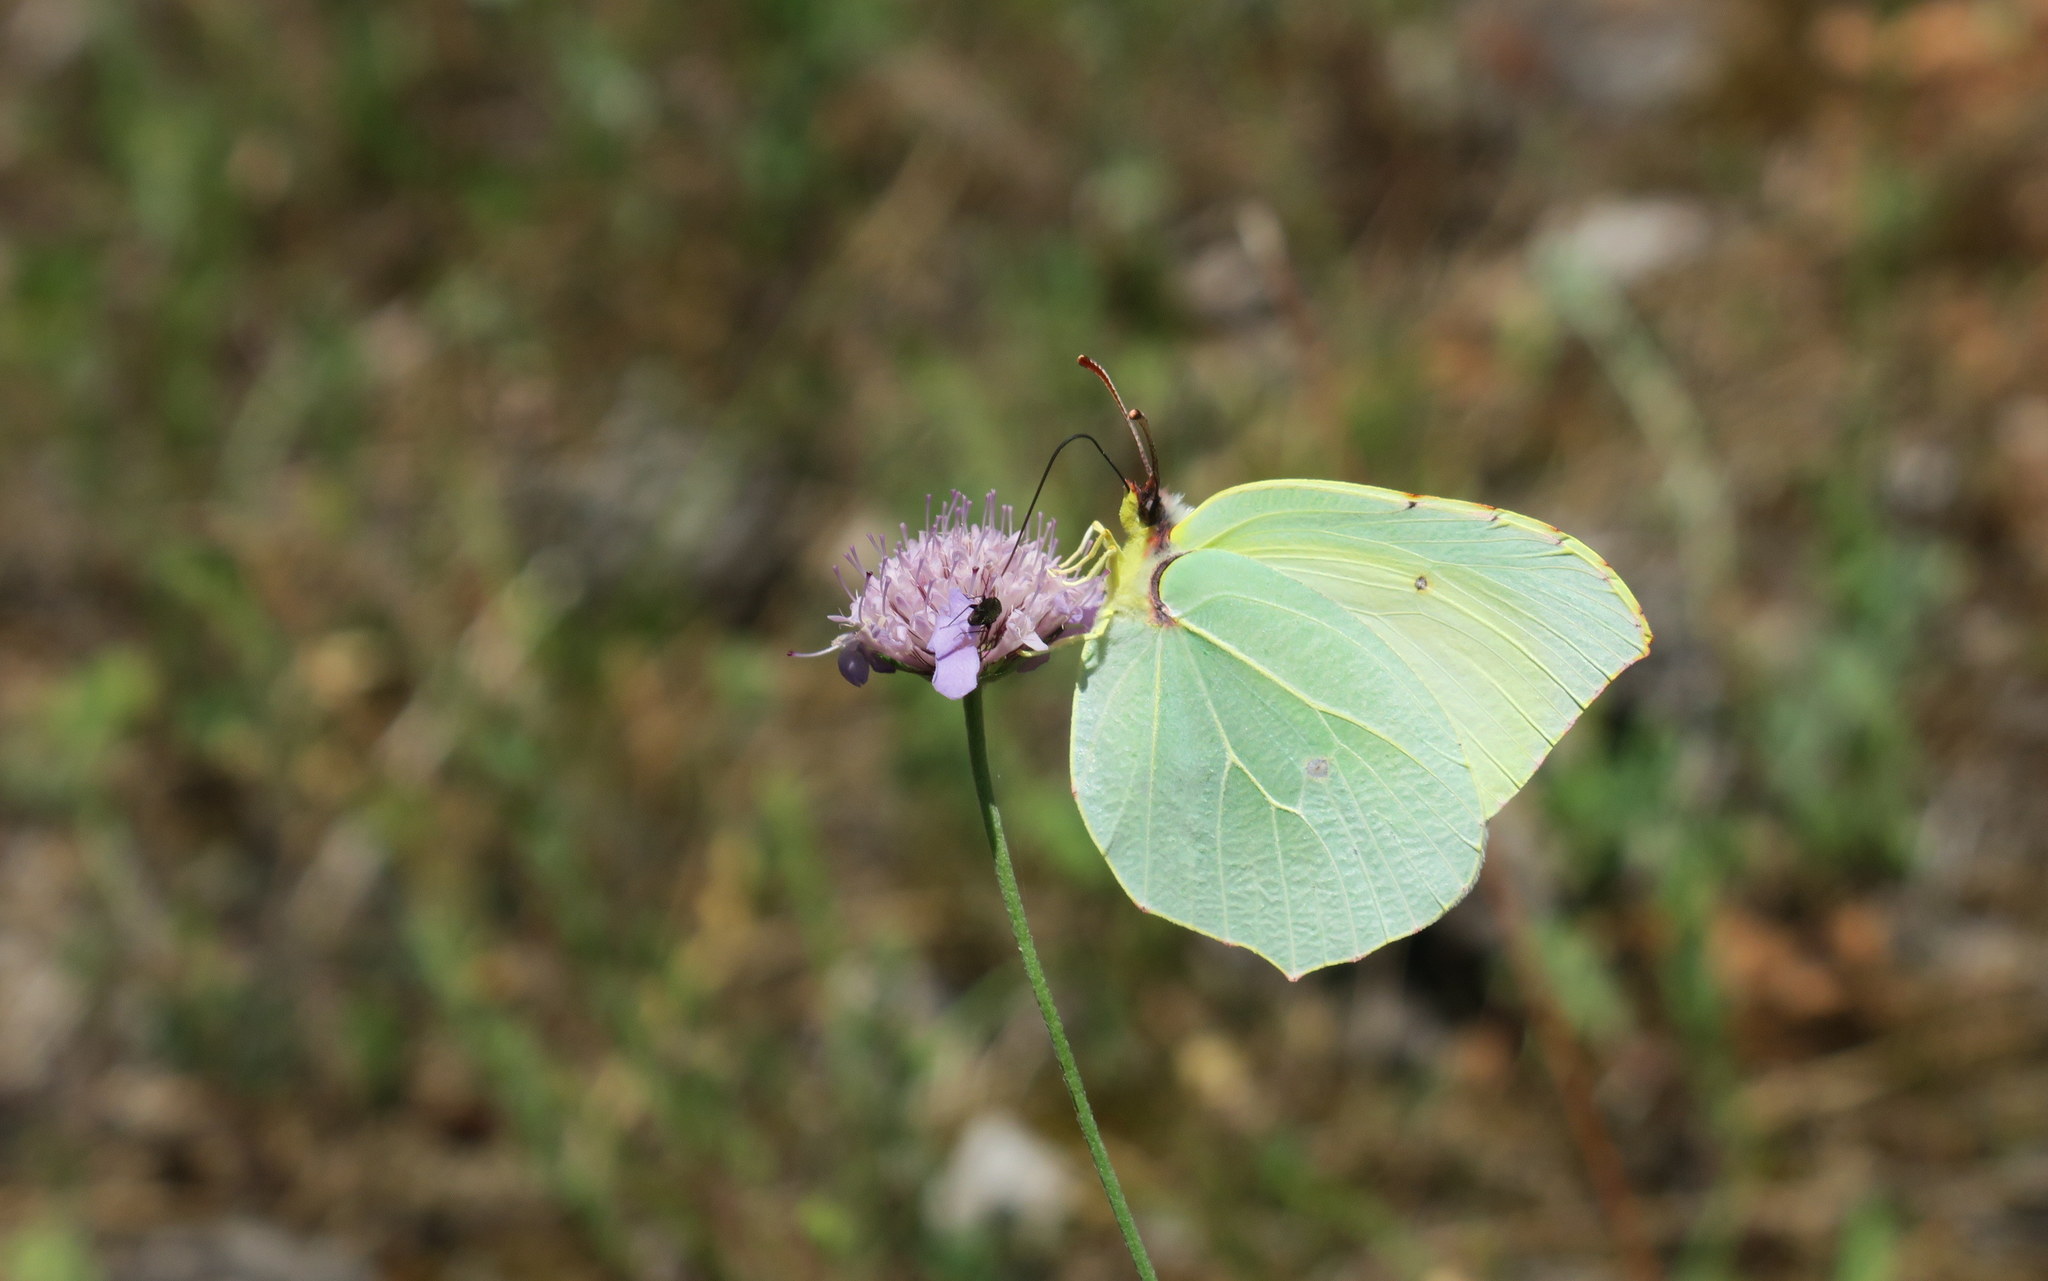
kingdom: Animalia
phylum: Arthropoda
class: Insecta
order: Lepidoptera
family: Pieridae
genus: Gonepteryx
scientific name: Gonepteryx cleopatra
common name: Cleopatra
